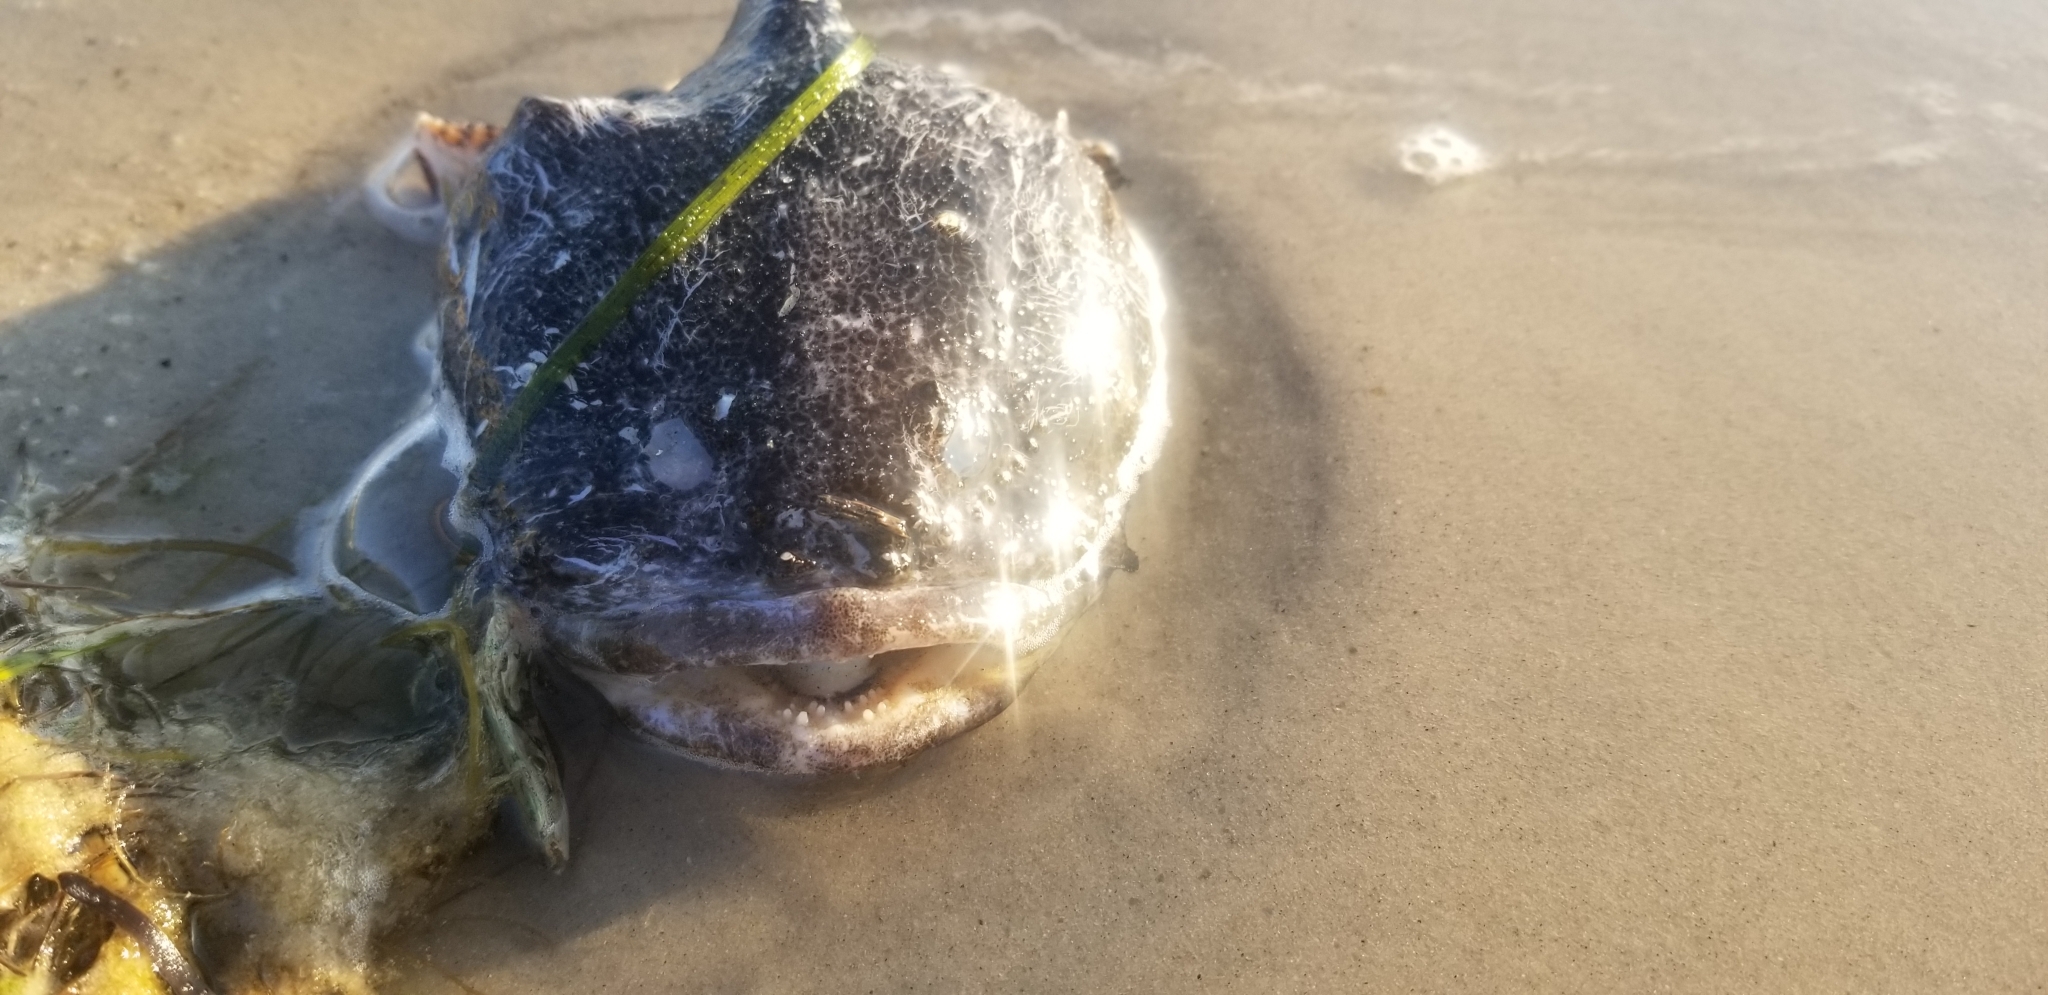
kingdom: Animalia
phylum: Chordata
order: Batrachoidiformes
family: Batrachoididae
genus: Opsanus
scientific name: Opsanus tau
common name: Oyster toadfish
